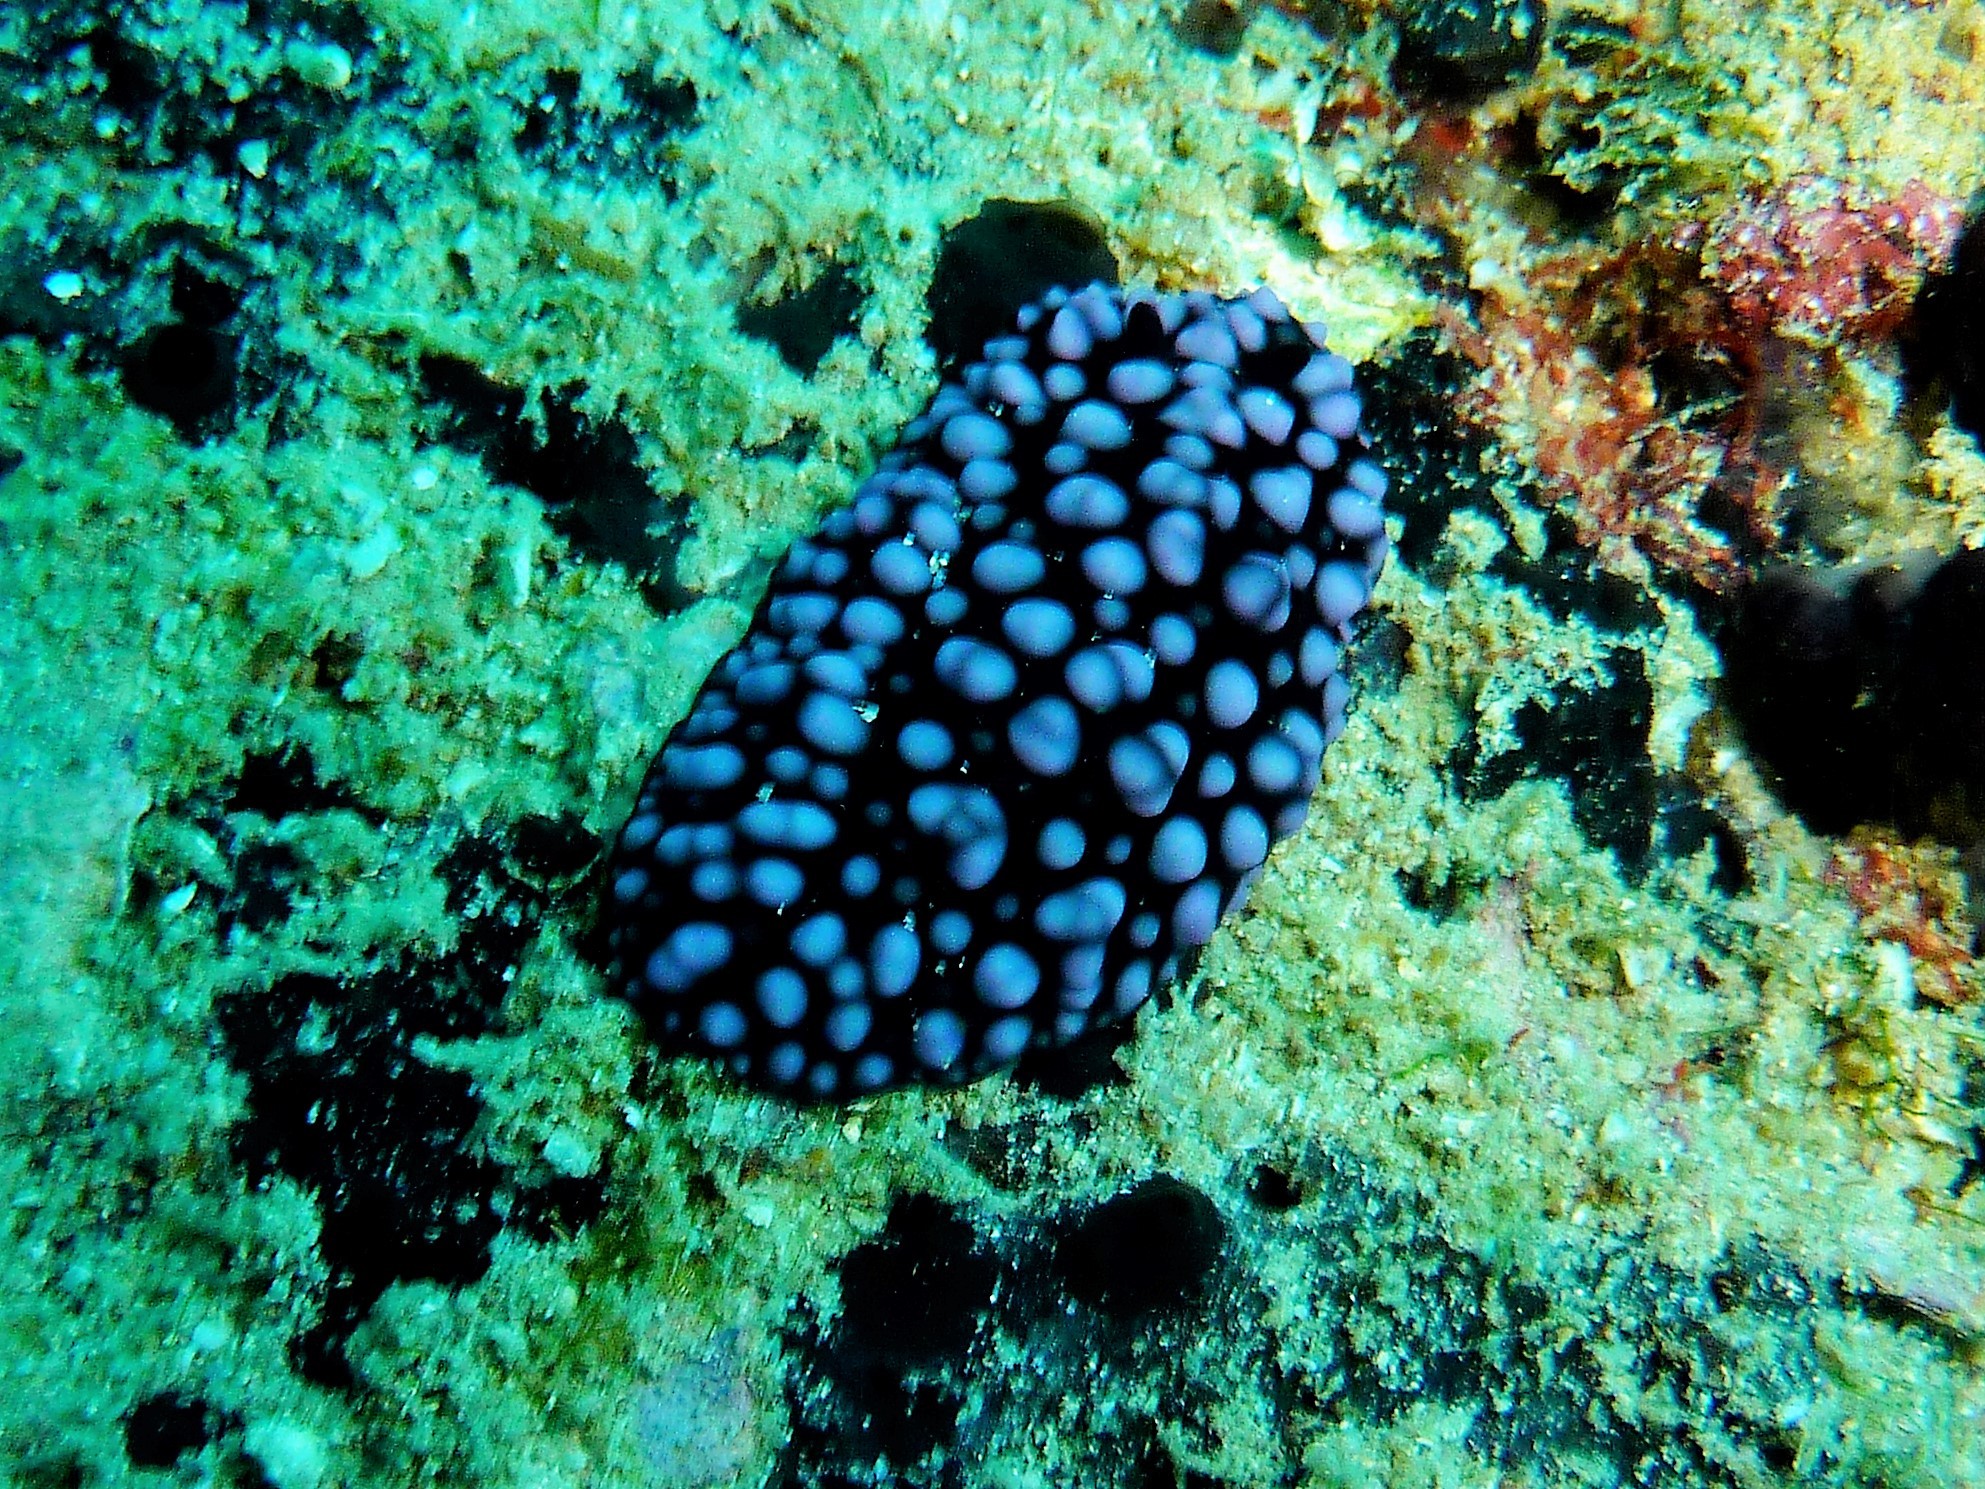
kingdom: Animalia
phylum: Mollusca
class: Gastropoda
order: Nudibranchia
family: Phyllidiidae
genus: Phyllidiella
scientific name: Phyllidiella nigra
